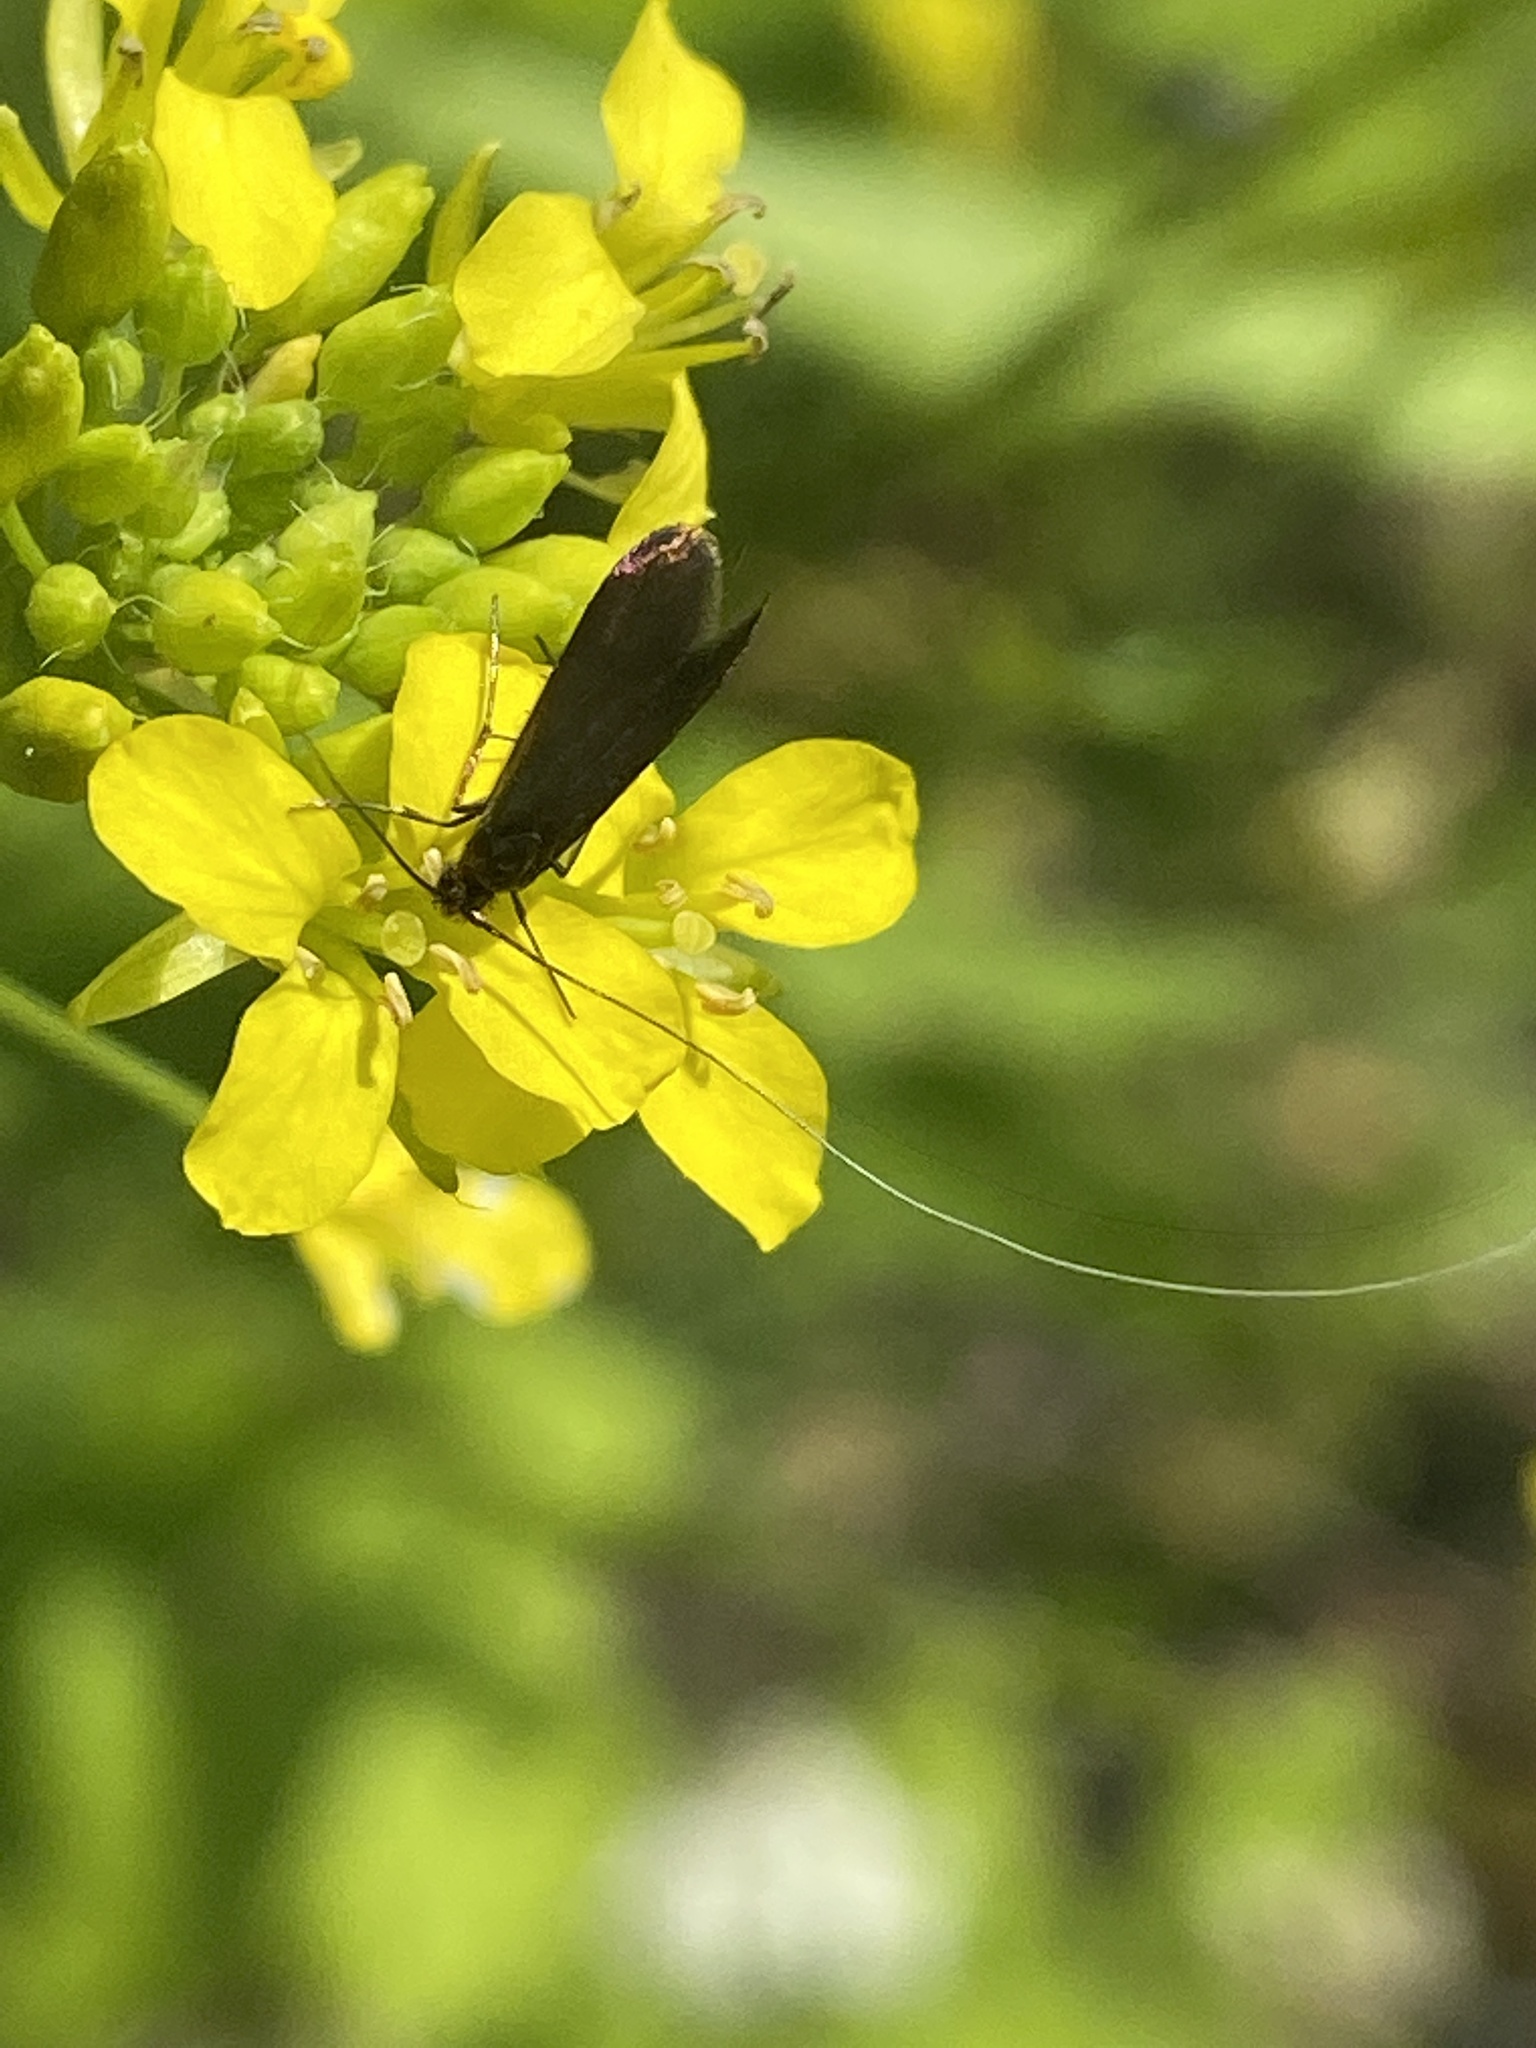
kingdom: Animalia
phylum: Arthropoda
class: Insecta
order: Lepidoptera
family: Adelidae
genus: Adela
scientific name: Adela violella
